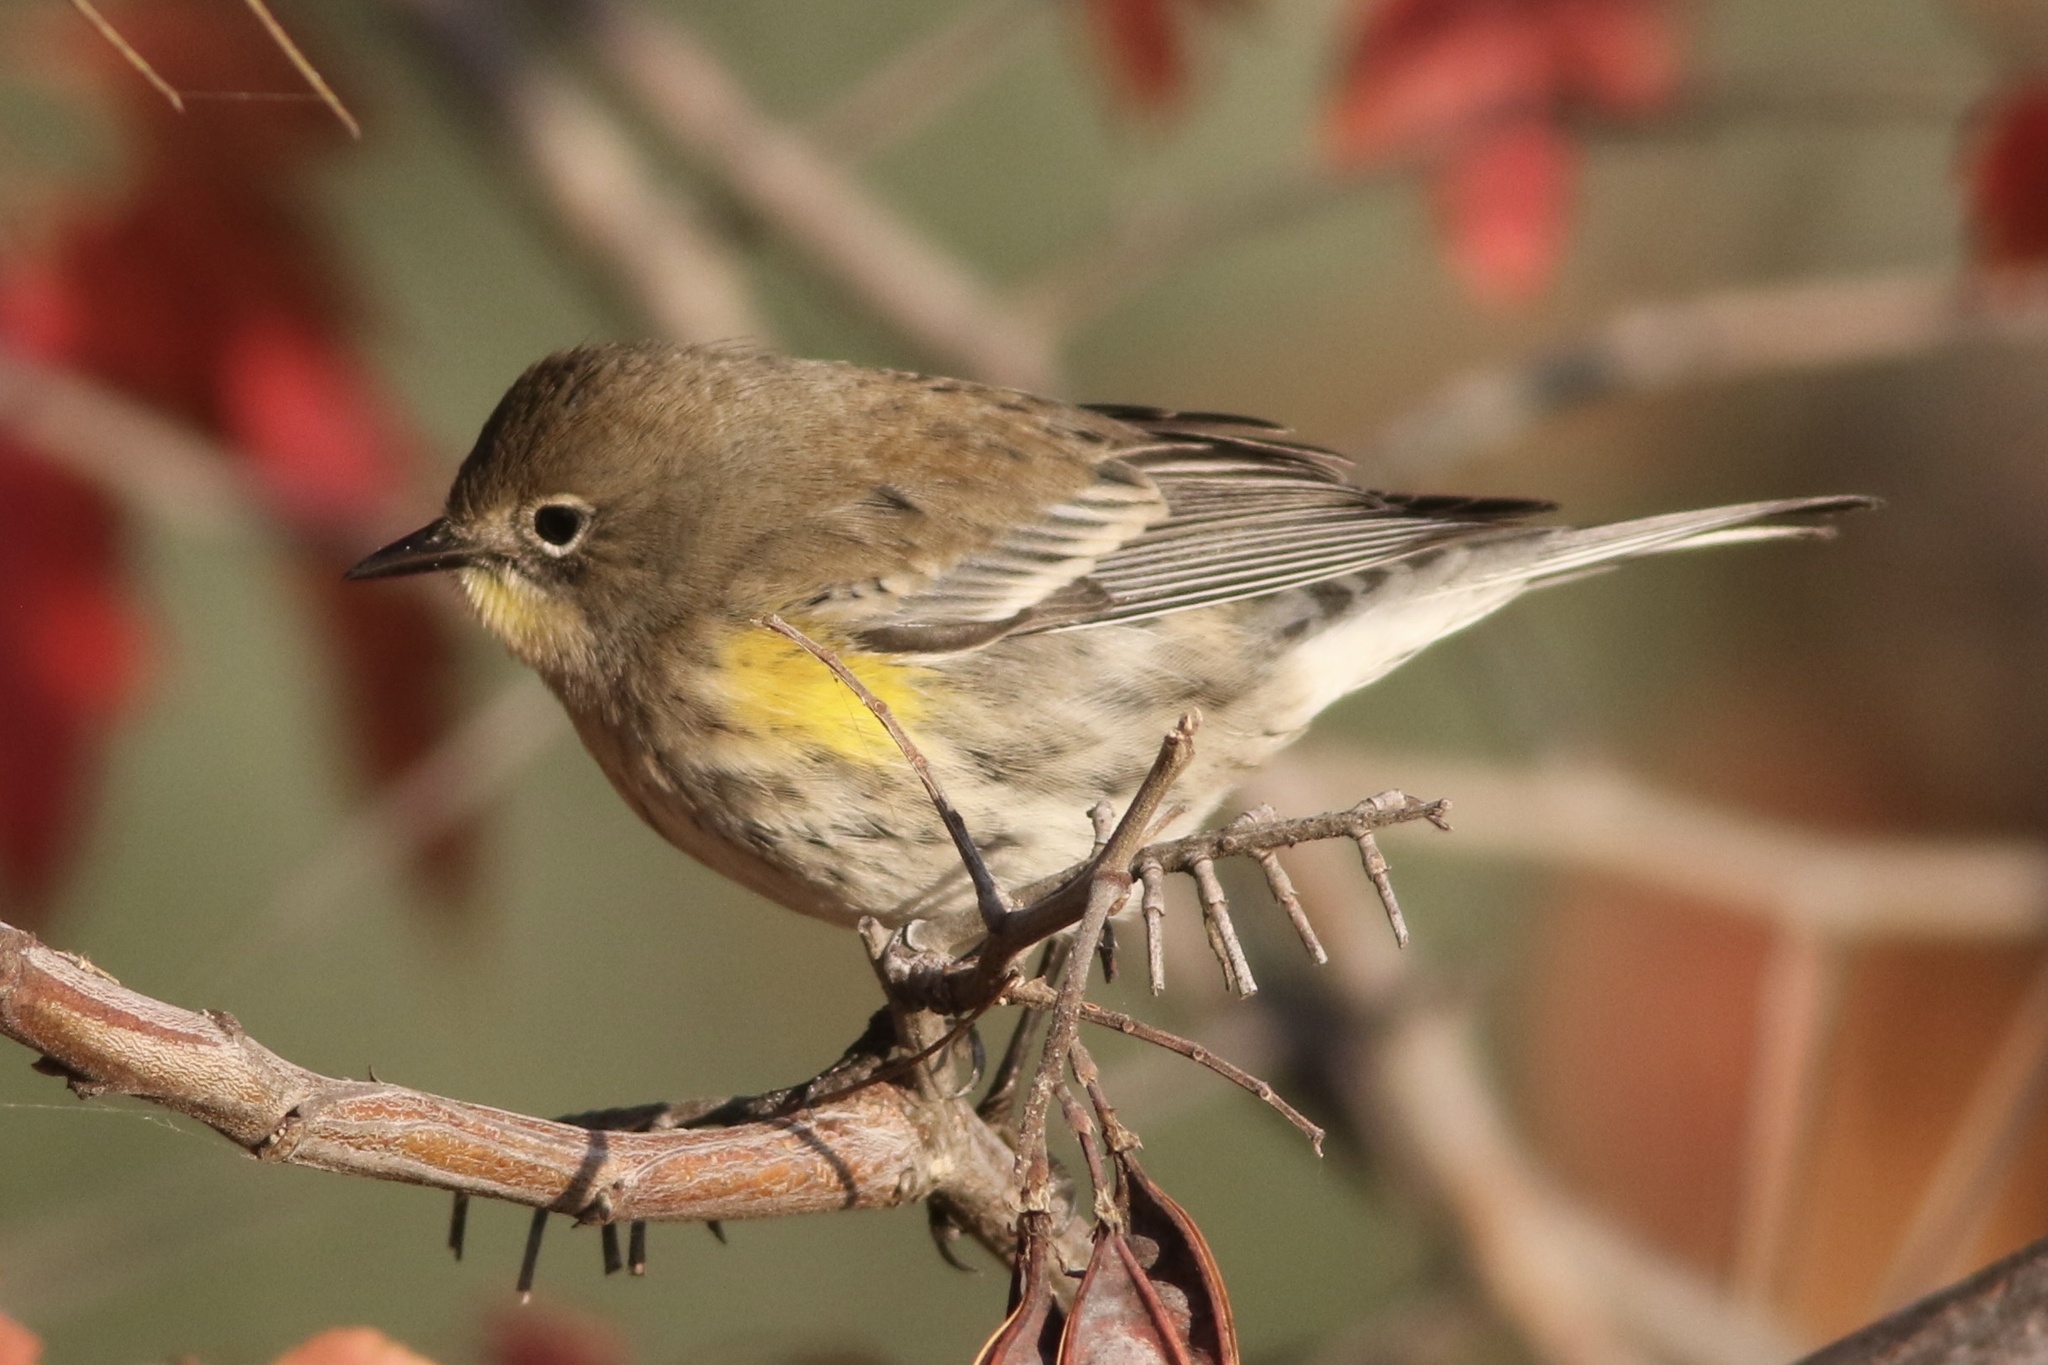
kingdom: Animalia
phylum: Chordata
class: Aves
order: Passeriformes
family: Parulidae
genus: Setophaga
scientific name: Setophaga coronata
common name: Myrtle warbler
